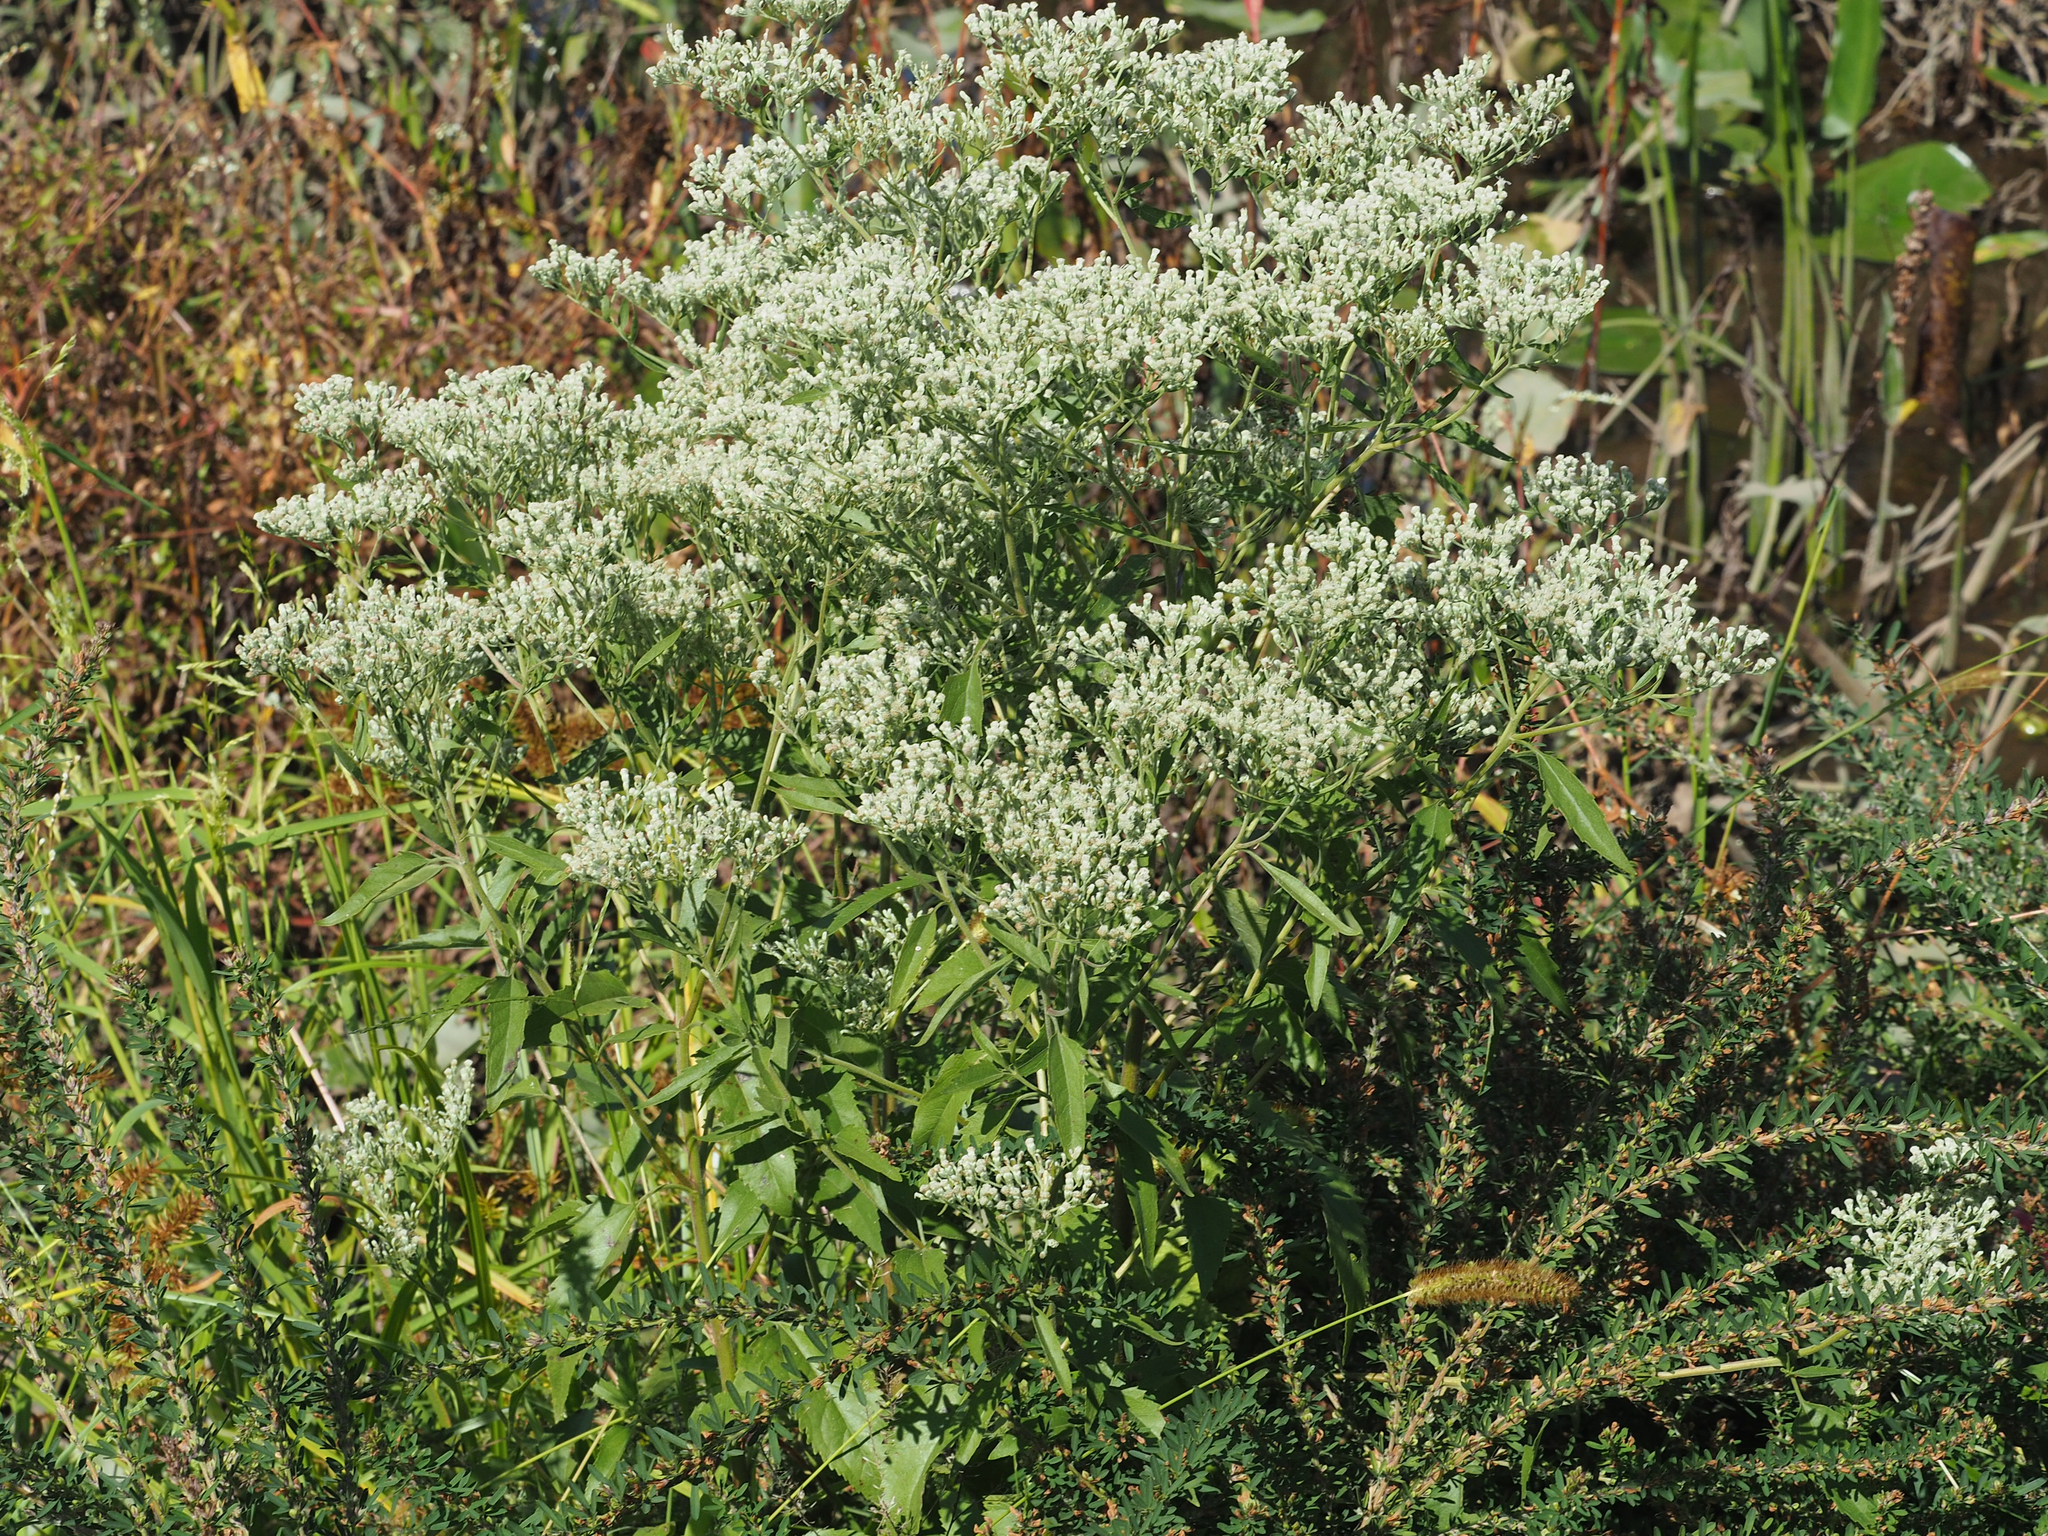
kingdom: Plantae
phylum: Tracheophyta
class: Magnoliopsida
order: Asterales
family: Asteraceae
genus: Eupatorium
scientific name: Eupatorium serotinum
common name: Late boneset
